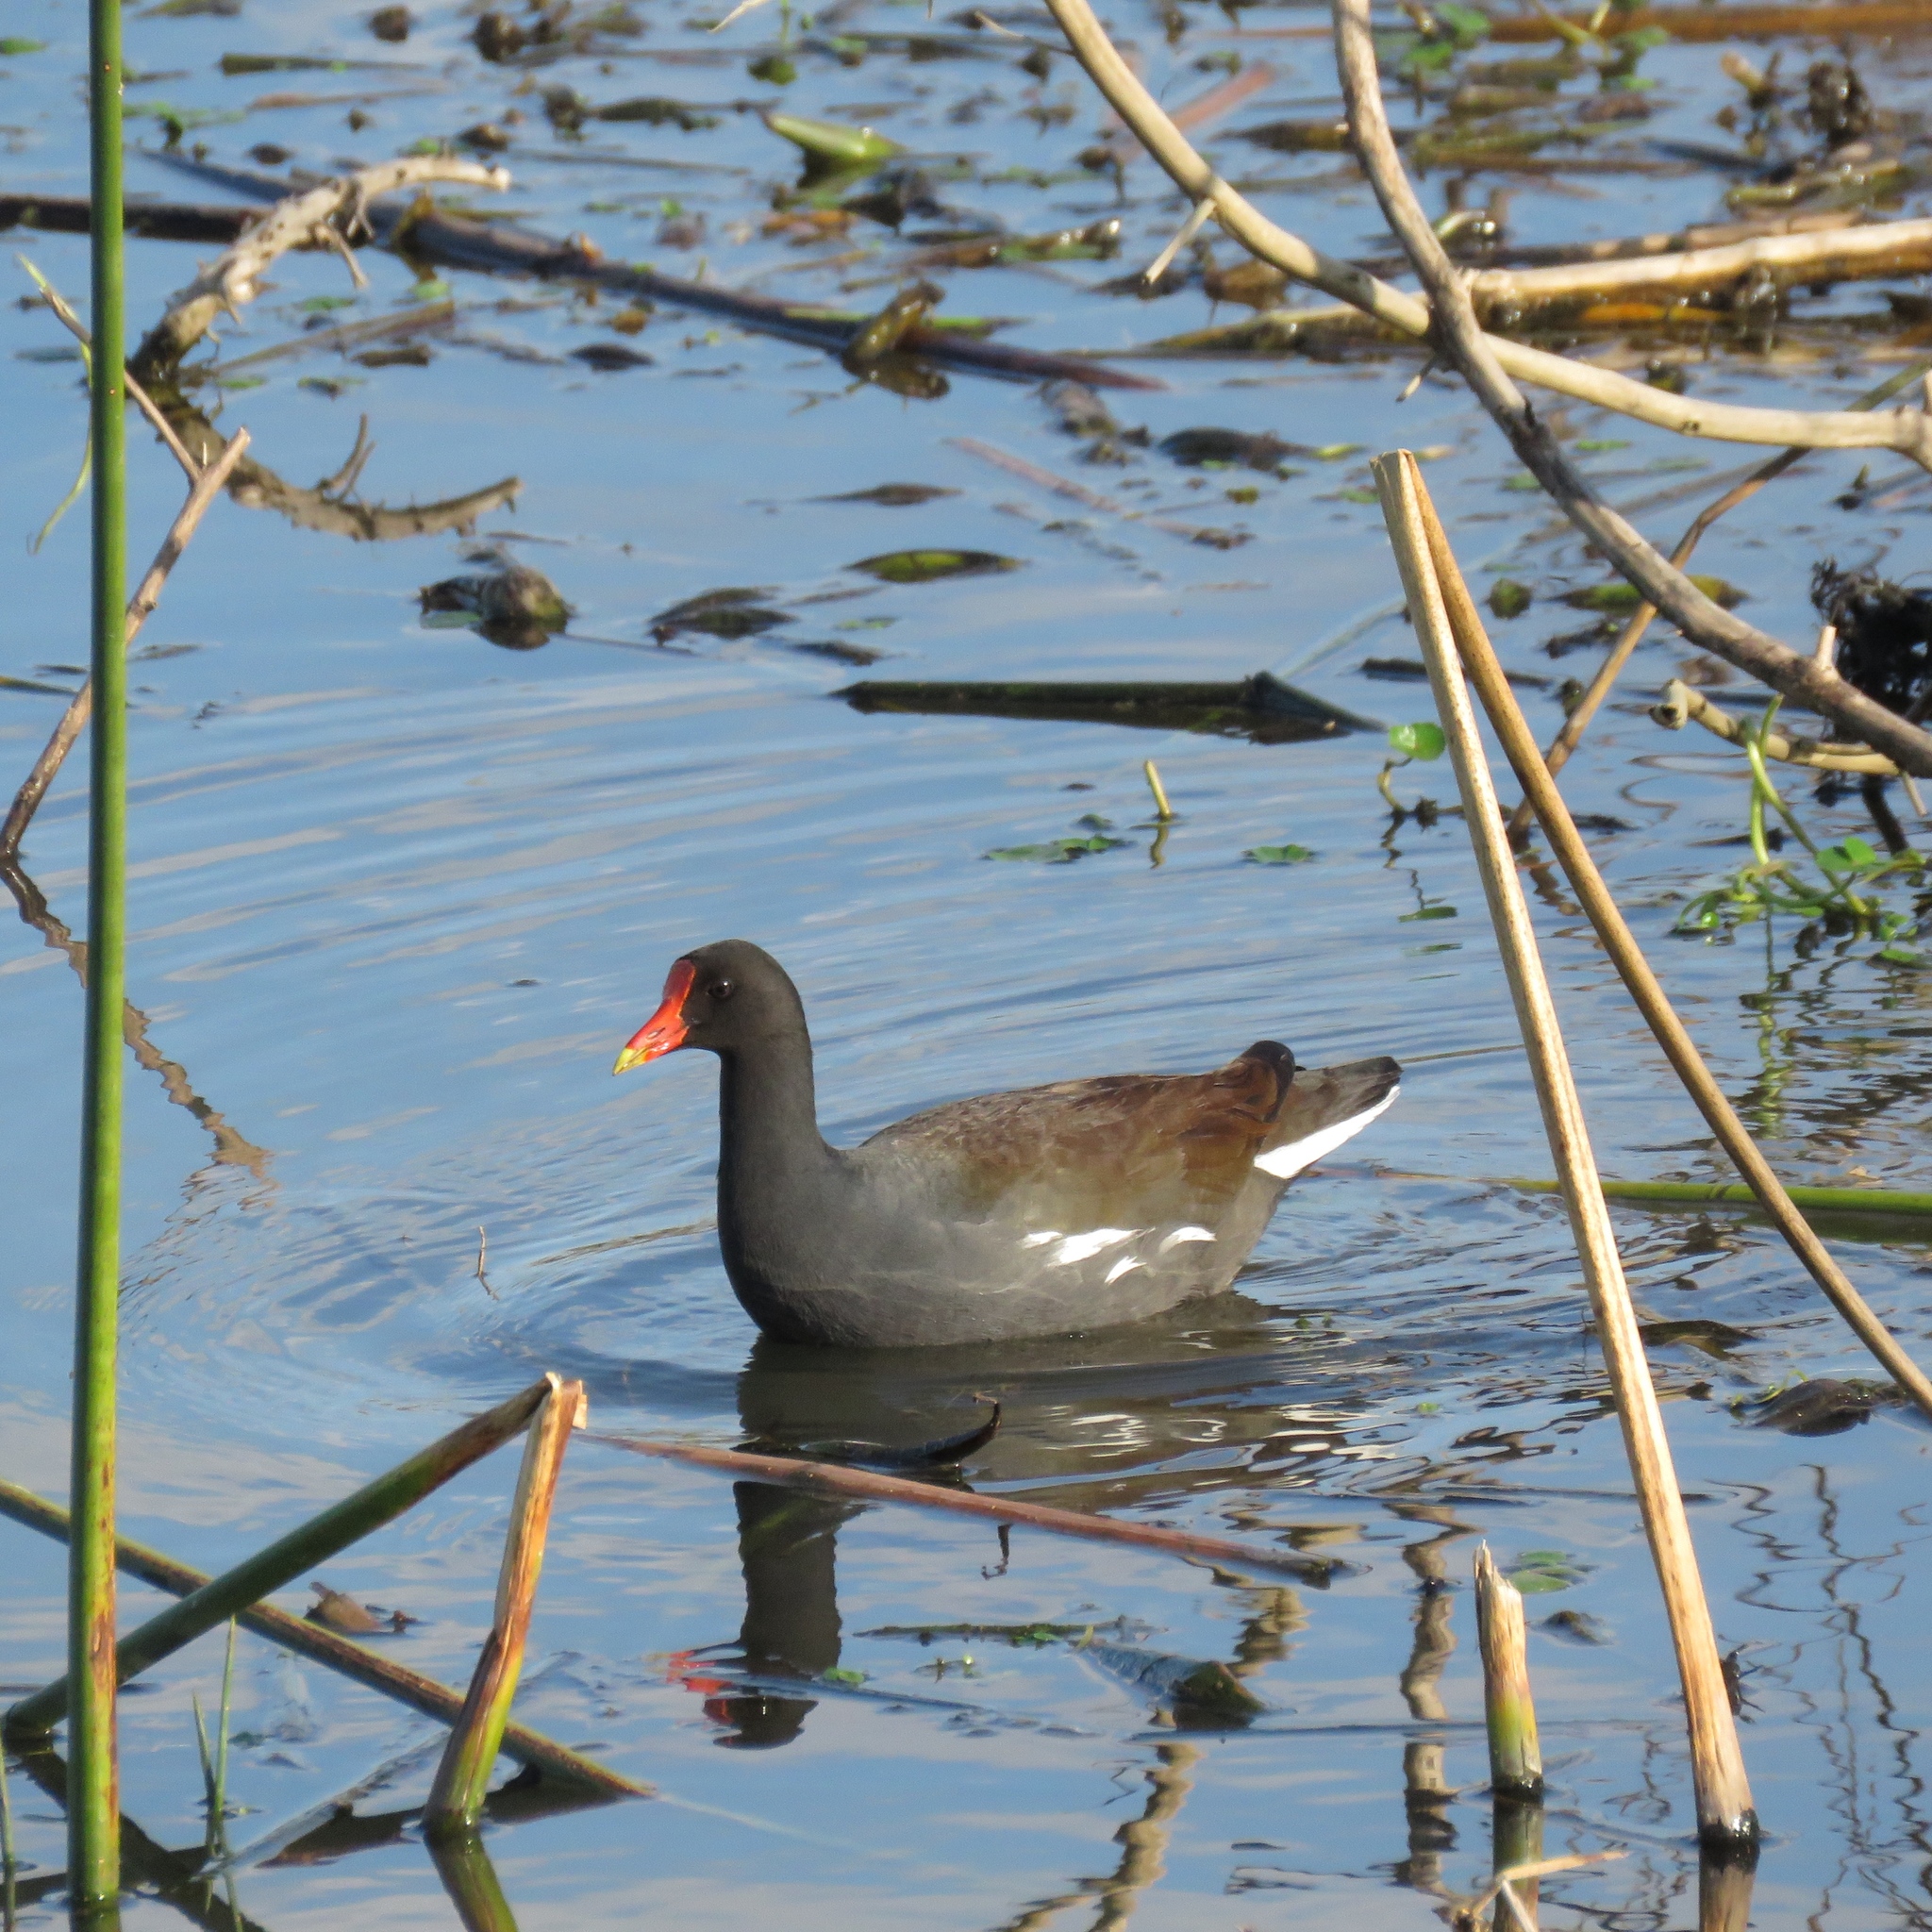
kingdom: Animalia
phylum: Chordata
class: Aves
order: Gruiformes
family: Rallidae
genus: Gallinula
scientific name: Gallinula chloropus
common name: Common moorhen
